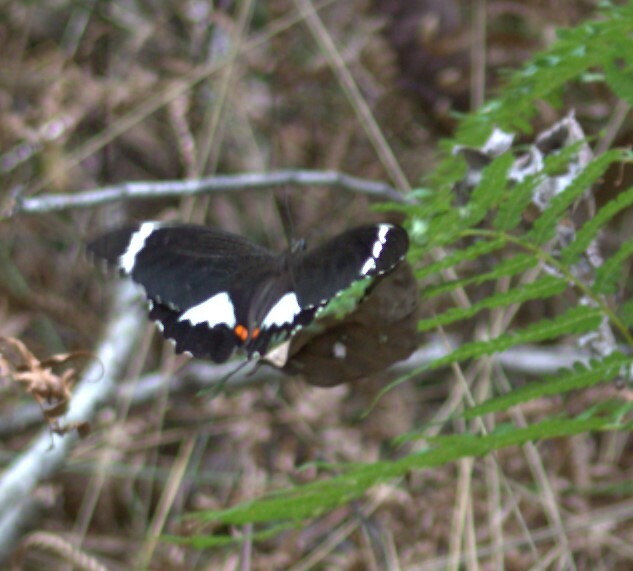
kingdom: Animalia
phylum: Arthropoda
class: Insecta
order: Lepidoptera
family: Papilionidae
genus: Papilio
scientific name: Papilio aegeus
